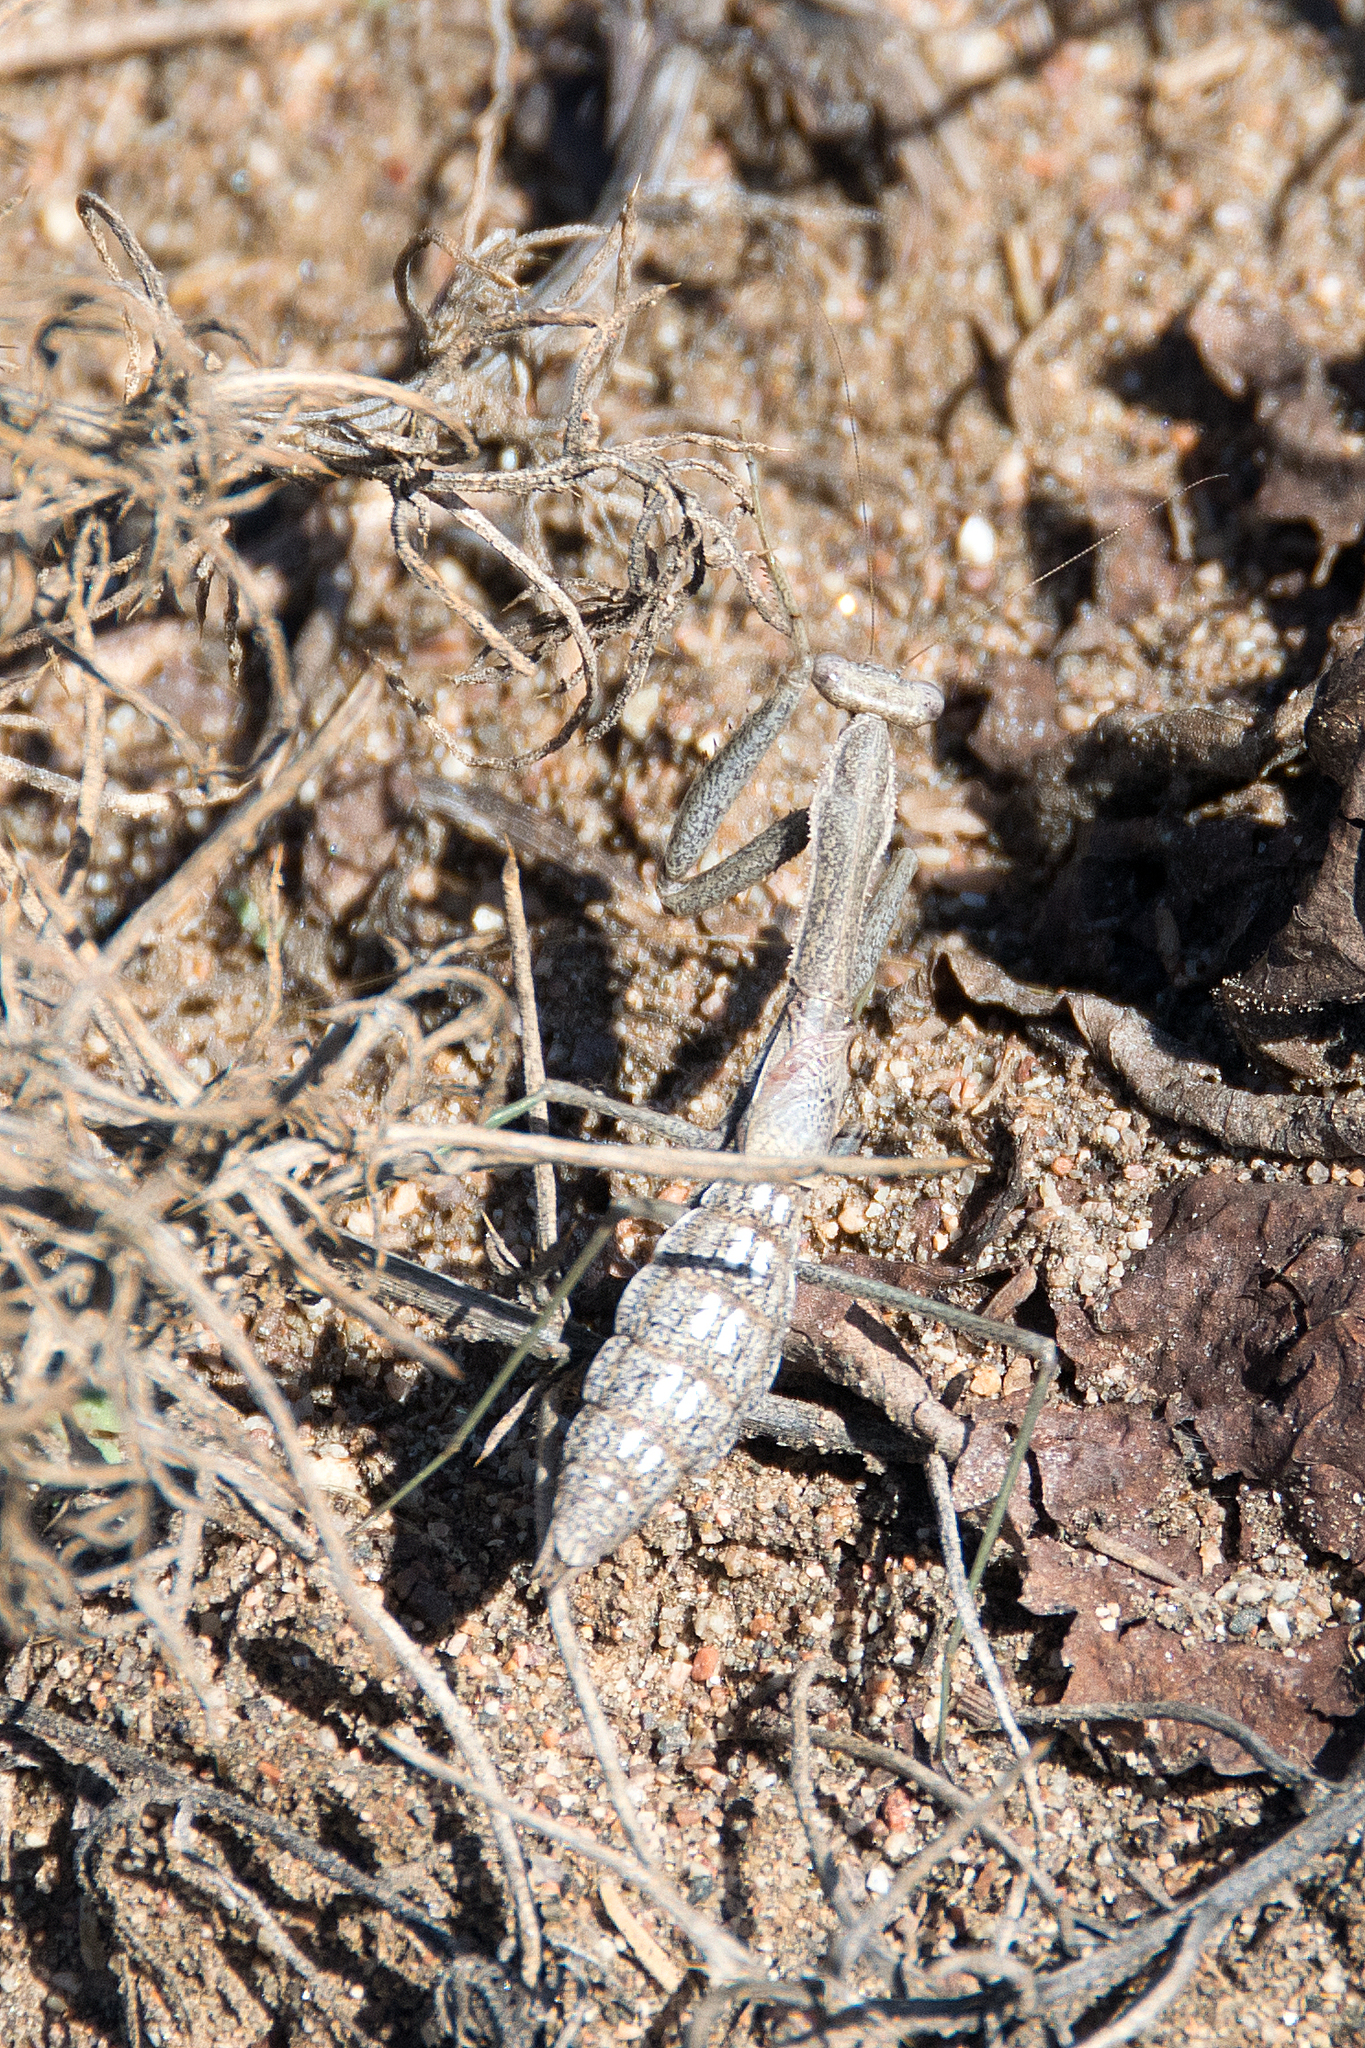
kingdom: Animalia
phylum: Arthropoda
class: Insecta
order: Mantodea
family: Coptopterygidae
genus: Coptopteryx
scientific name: Coptopteryx gayi
